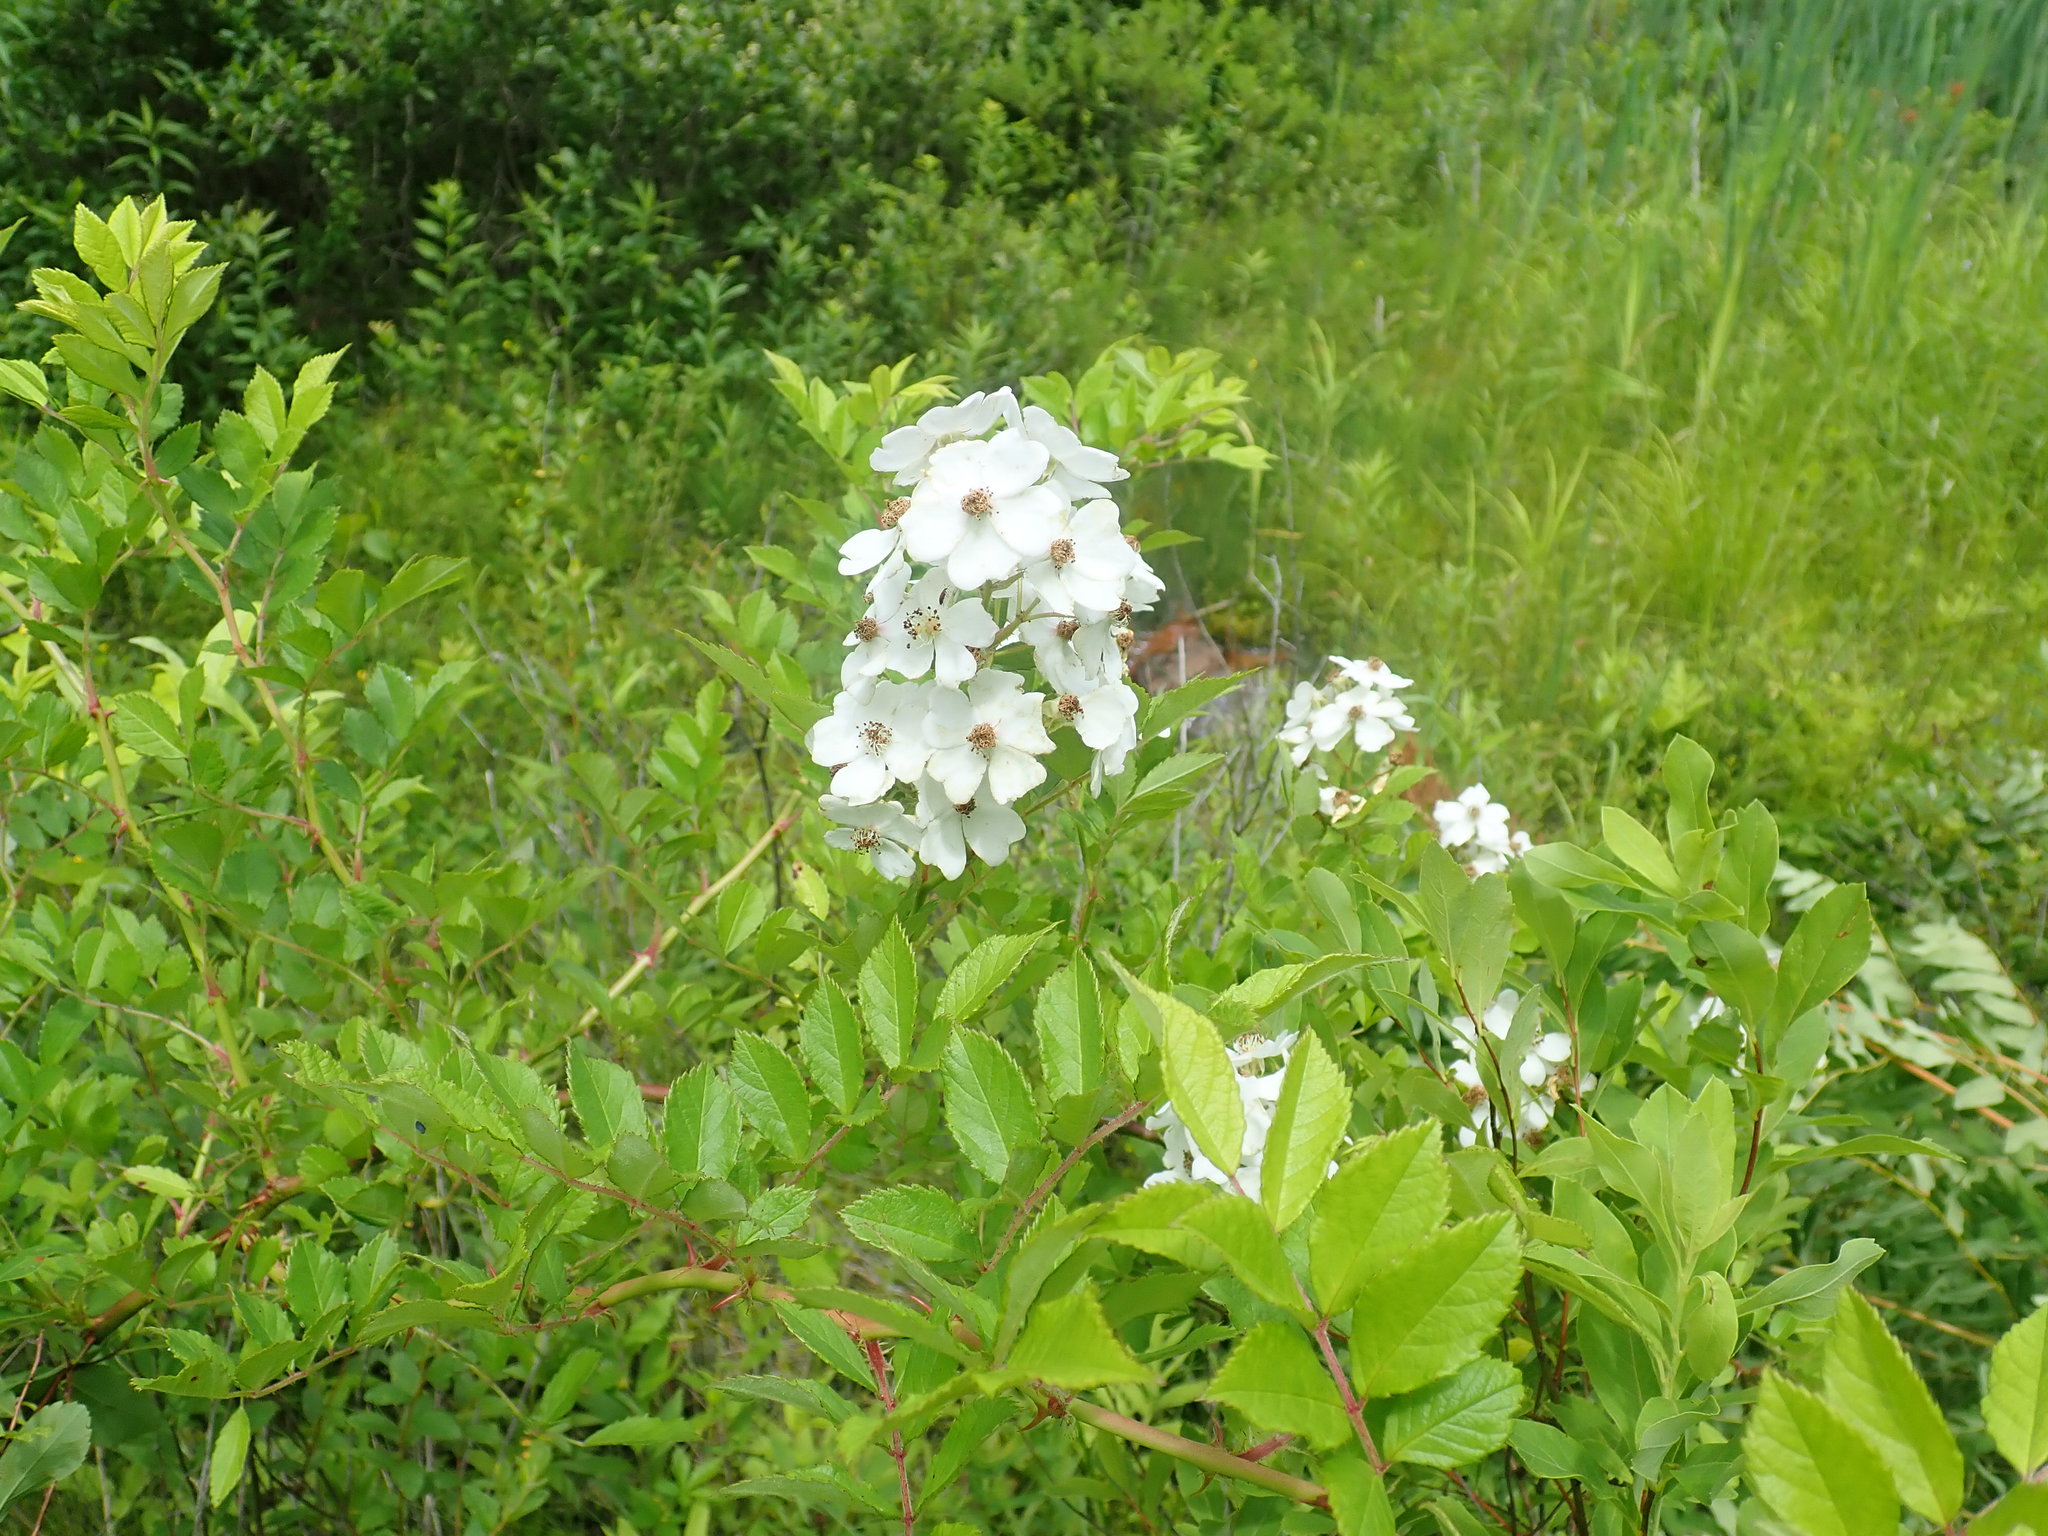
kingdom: Plantae
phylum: Tracheophyta
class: Magnoliopsida
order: Rosales
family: Rosaceae
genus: Rosa
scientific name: Rosa multiflora
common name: Multiflora rose
